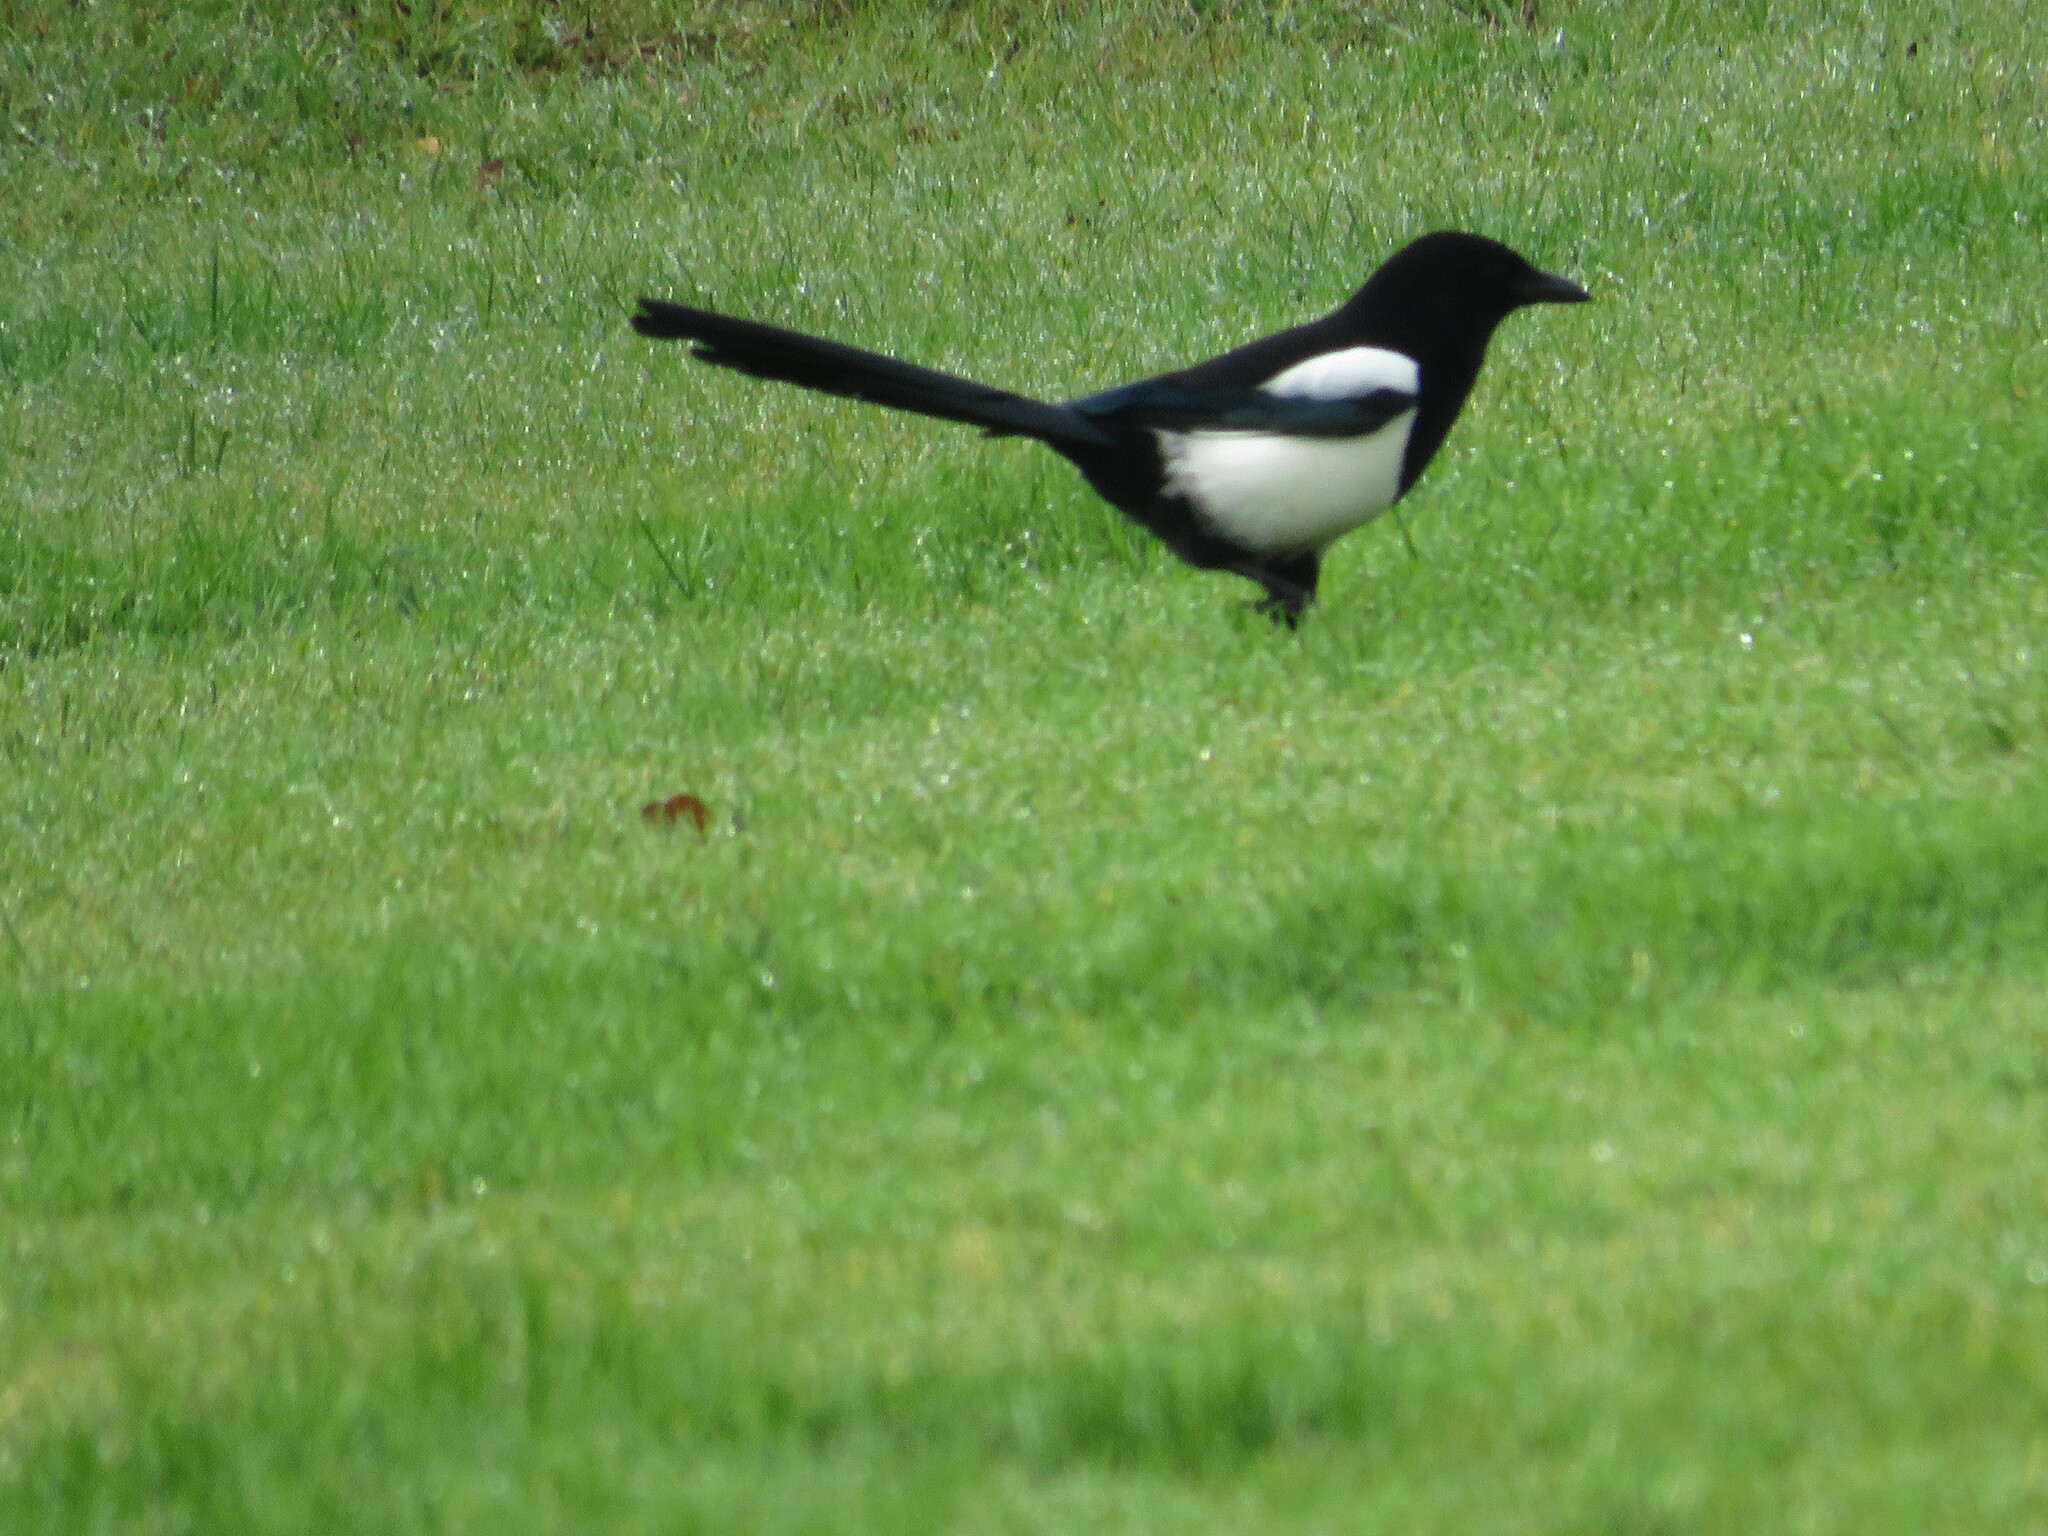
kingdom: Animalia
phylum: Chordata
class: Aves
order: Passeriformes
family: Corvidae
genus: Pica
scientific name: Pica pica
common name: Eurasian magpie
